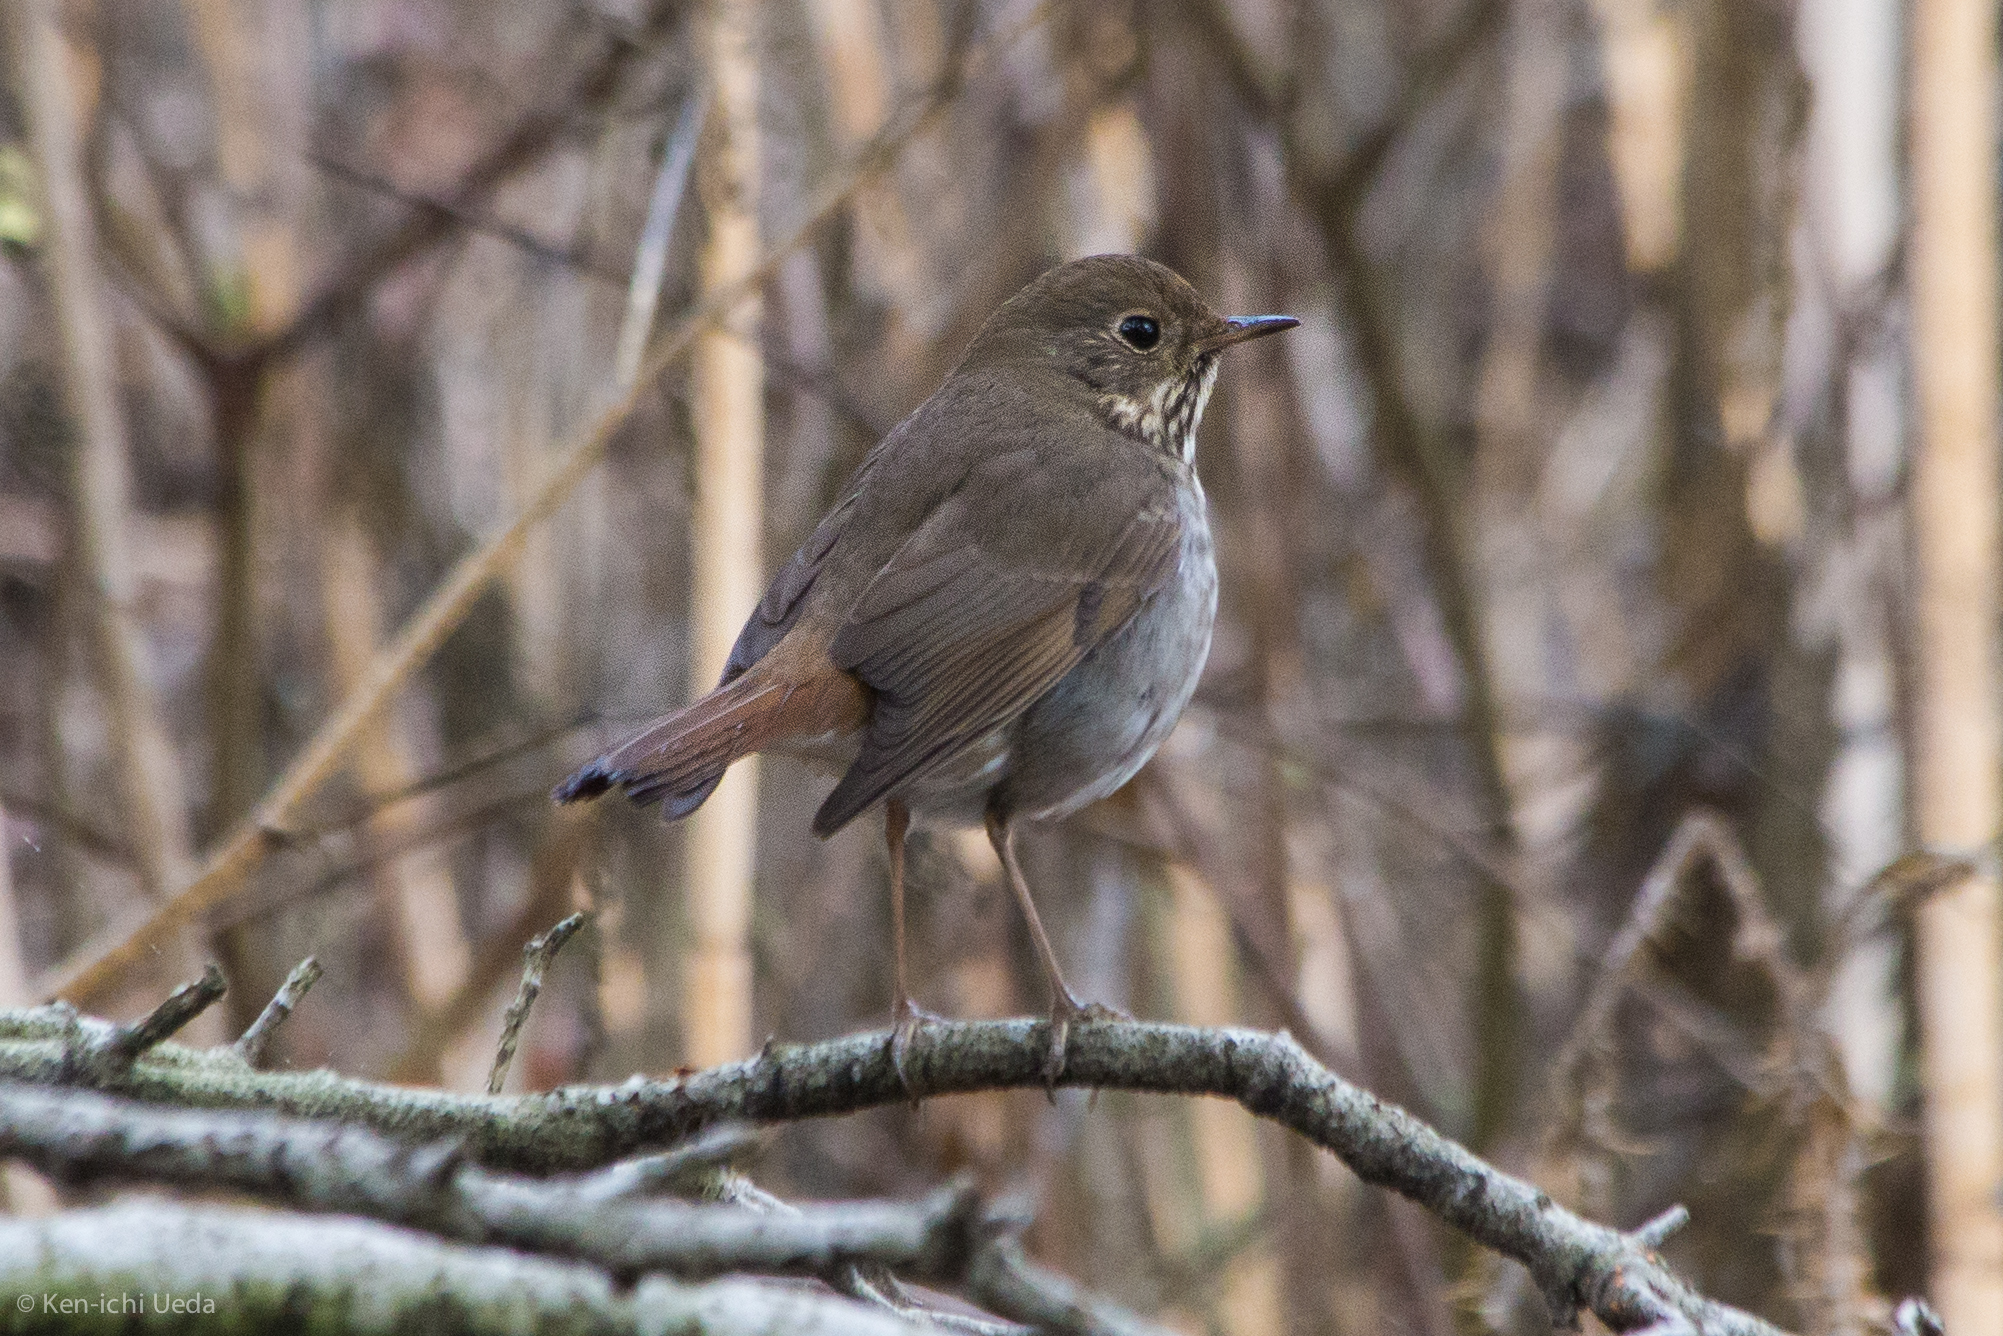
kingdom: Animalia
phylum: Chordata
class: Aves
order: Passeriformes
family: Turdidae
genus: Catharus
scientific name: Catharus guttatus
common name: Hermit thrush
